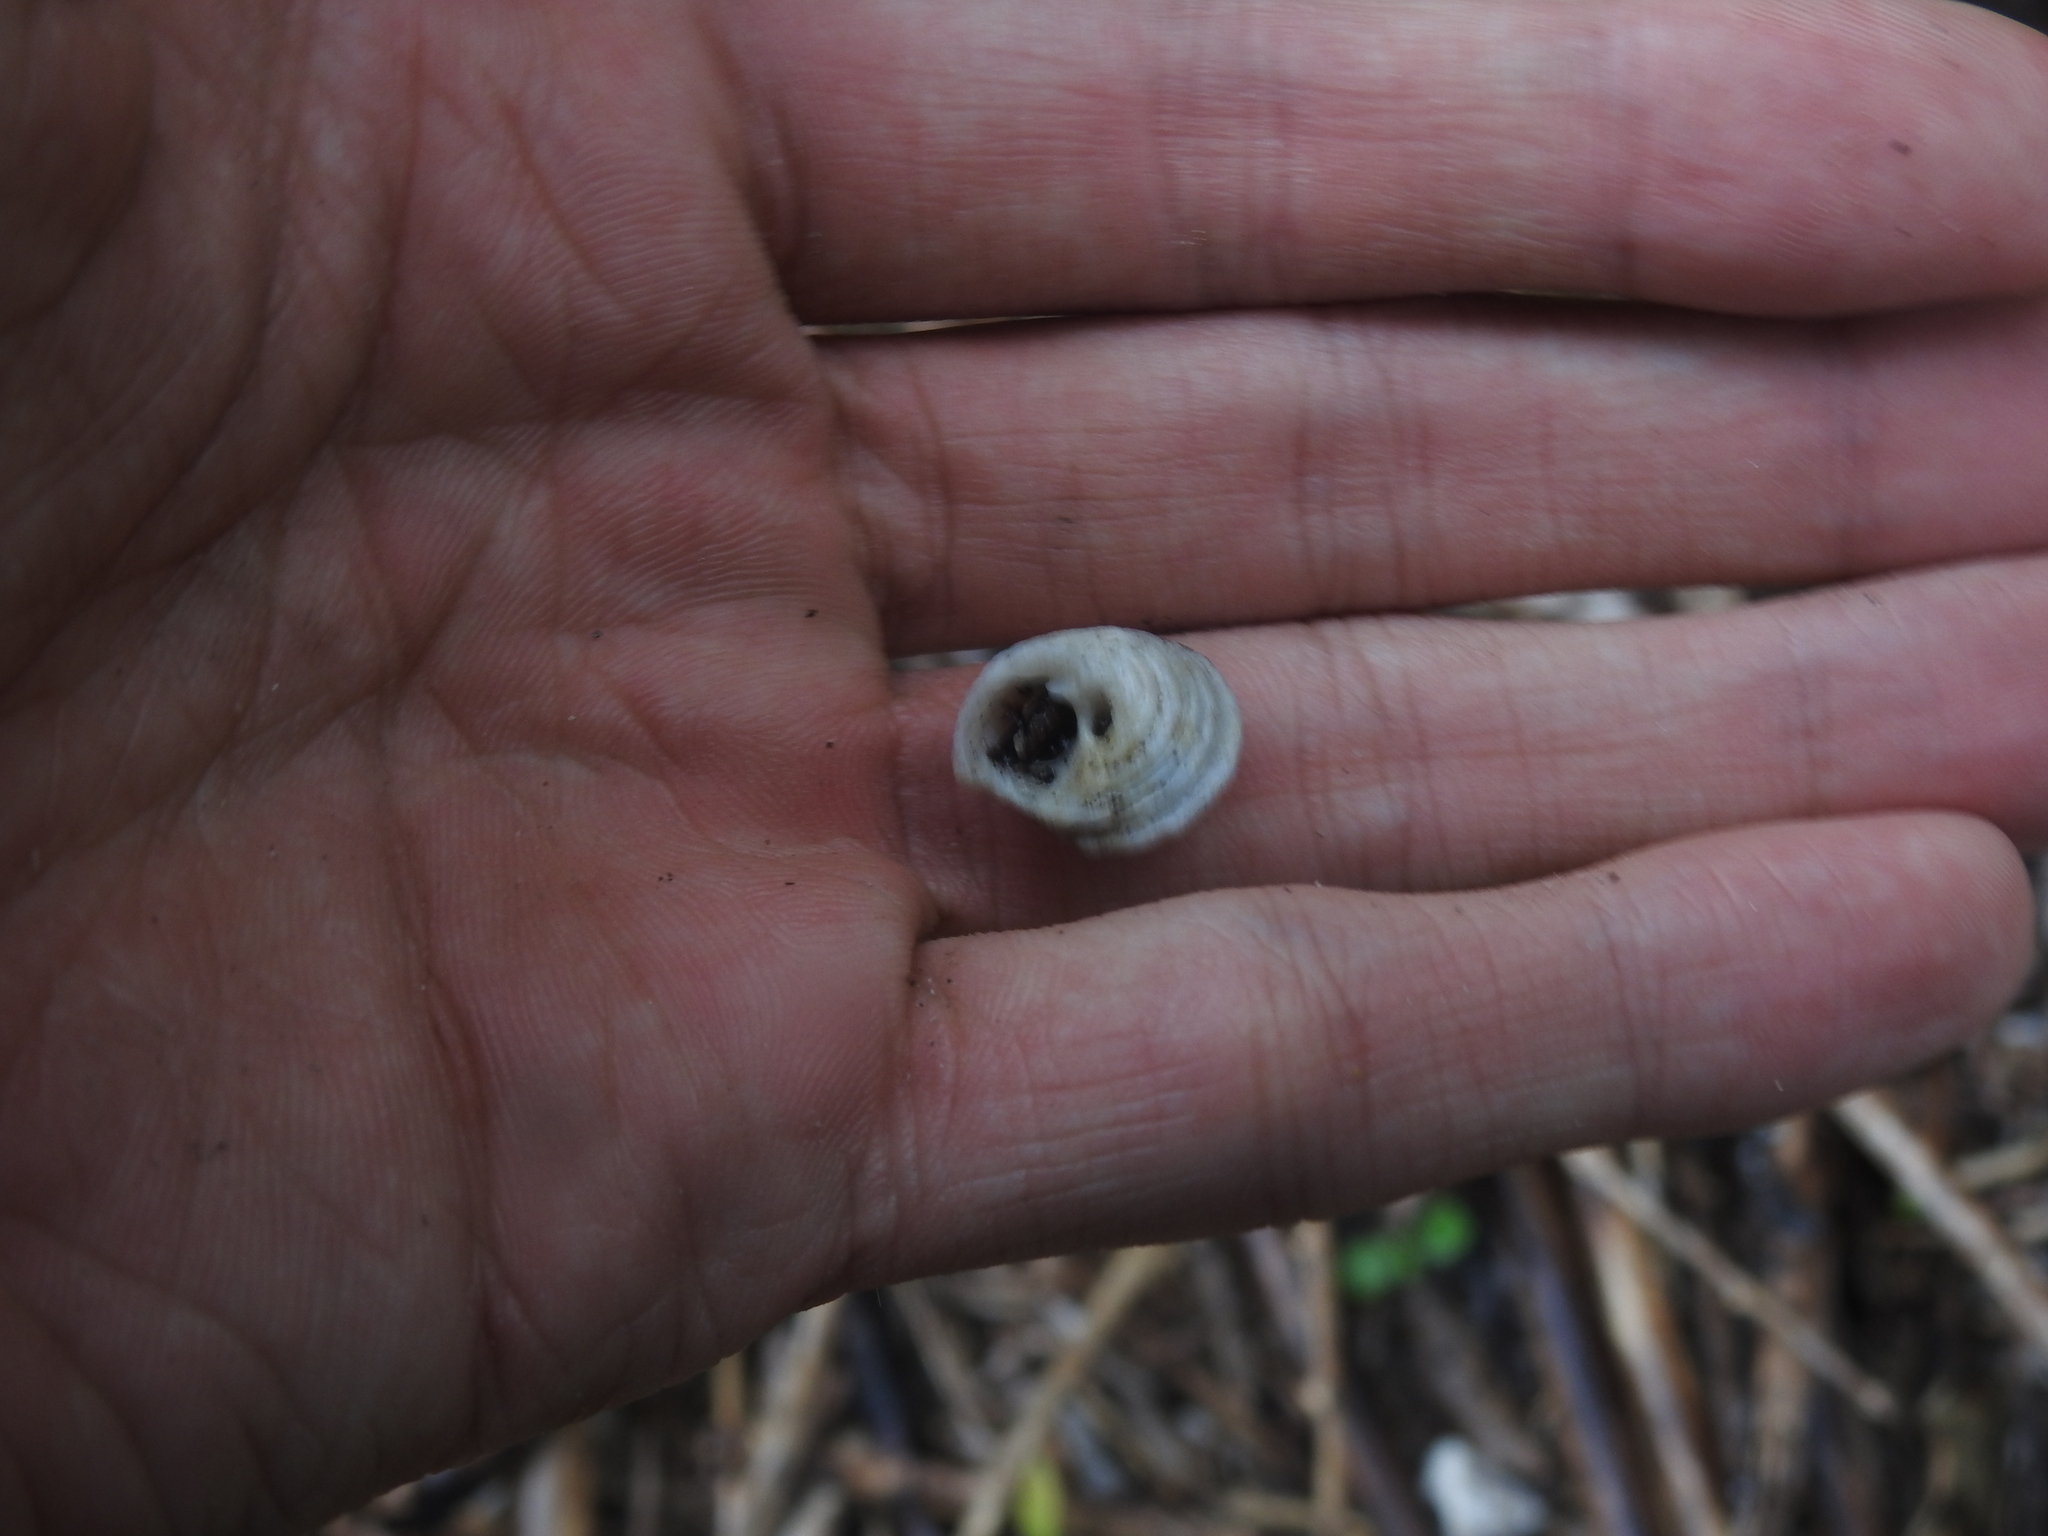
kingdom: Animalia
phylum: Mollusca
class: Gastropoda
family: Modulidae
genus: Modulus
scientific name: Modulus modulus
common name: Atlantic modulus
